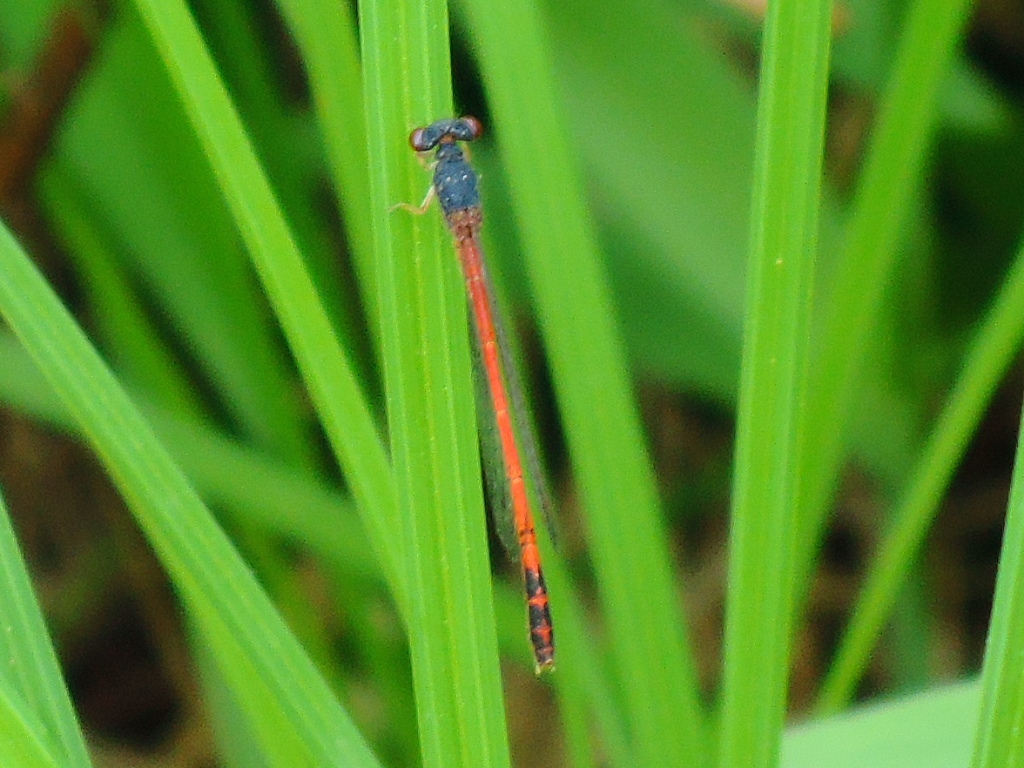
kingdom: Animalia
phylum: Arthropoda
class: Insecta
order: Odonata
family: Coenagrionidae
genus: Amphiagrion
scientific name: Amphiagrion saucium
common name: Eastern red damsel
